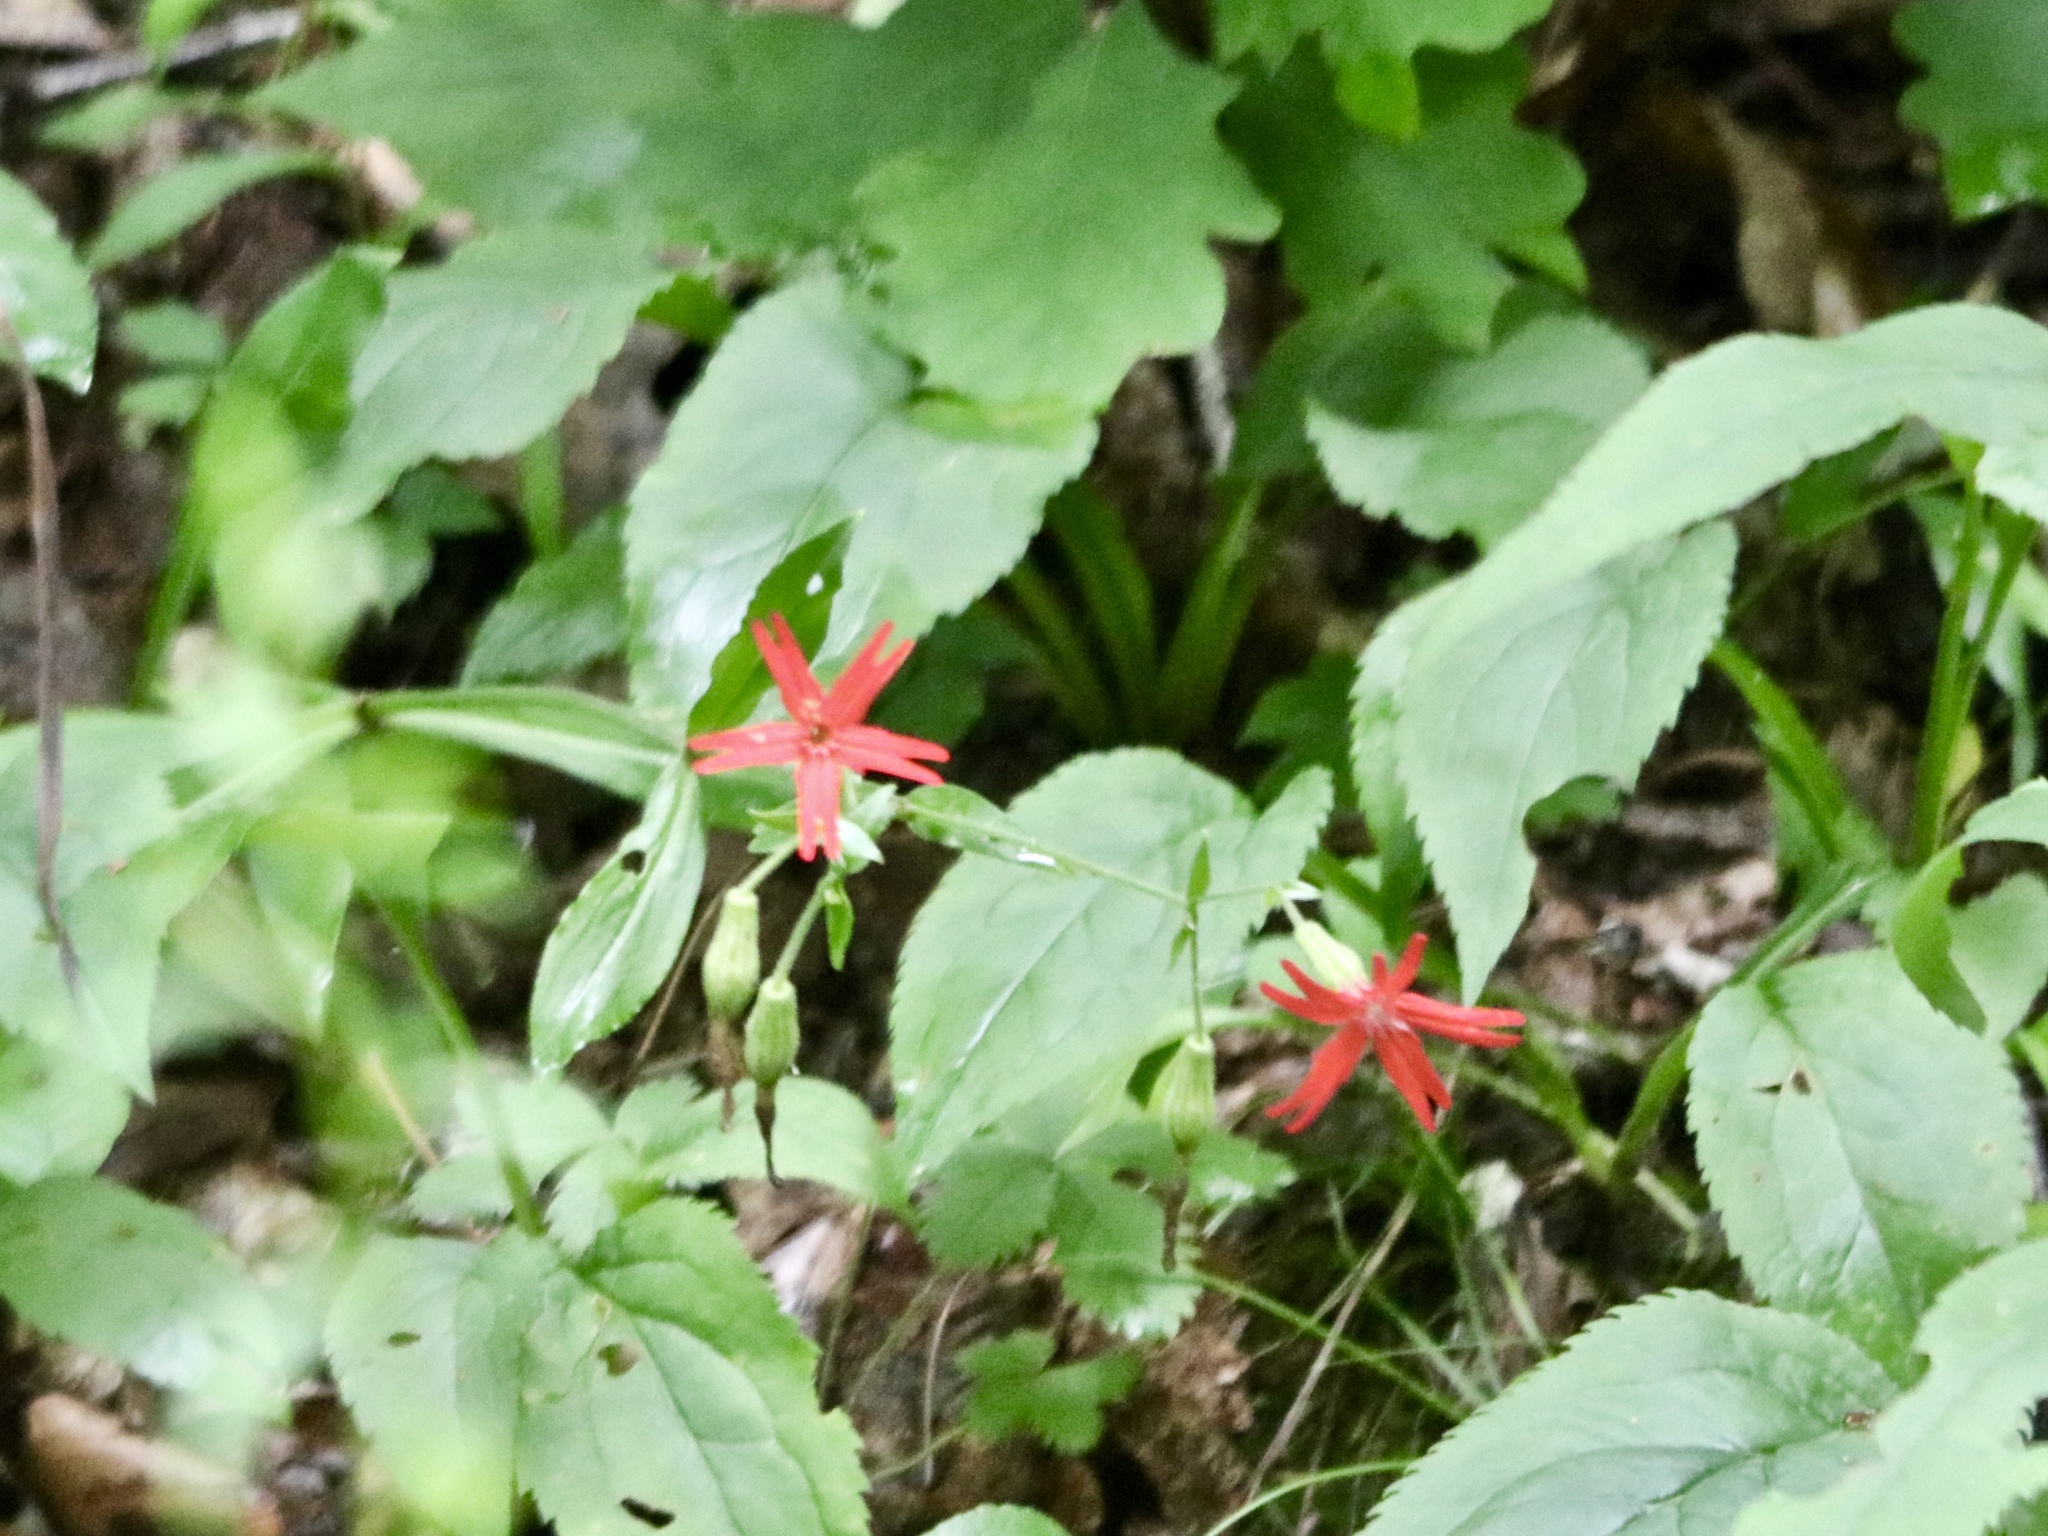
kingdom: Plantae
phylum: Tracheophyta
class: Magnoliopsida
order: Caryophyllales
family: Caryophyllaceae
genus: Silene
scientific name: Silene virginica
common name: Fire-pink
